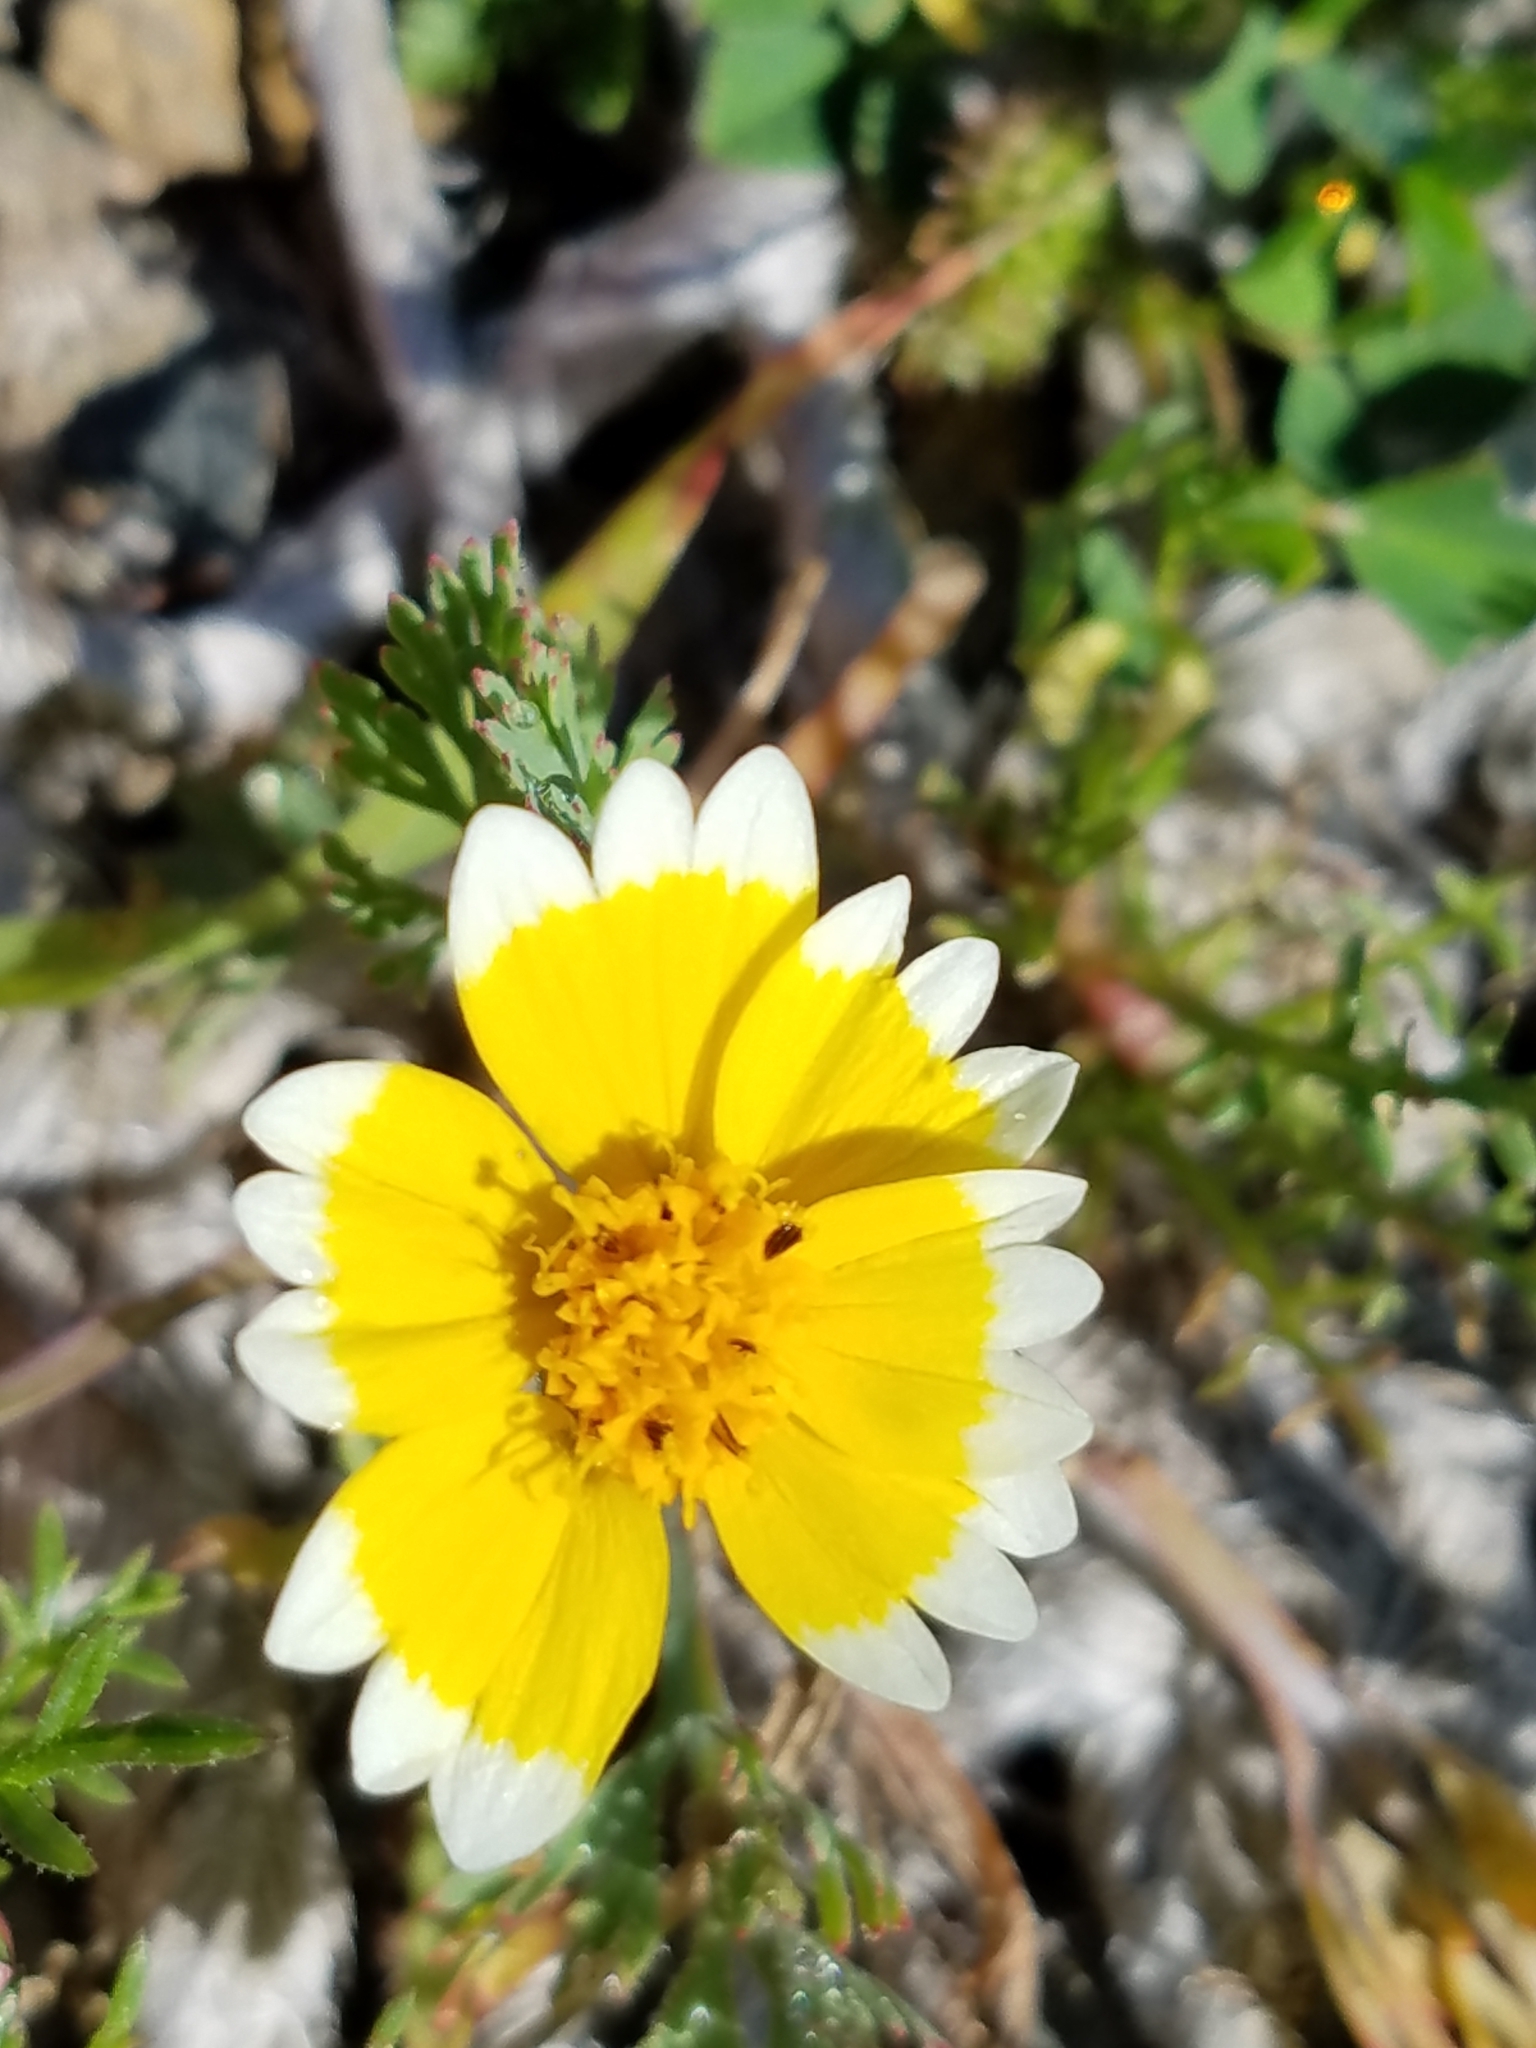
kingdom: Plantae
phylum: Tracheophyta
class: Magnoliopsida
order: Asterales
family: Asteraceae
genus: Layia
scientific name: Layia platyglossa
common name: Tidy-tips
